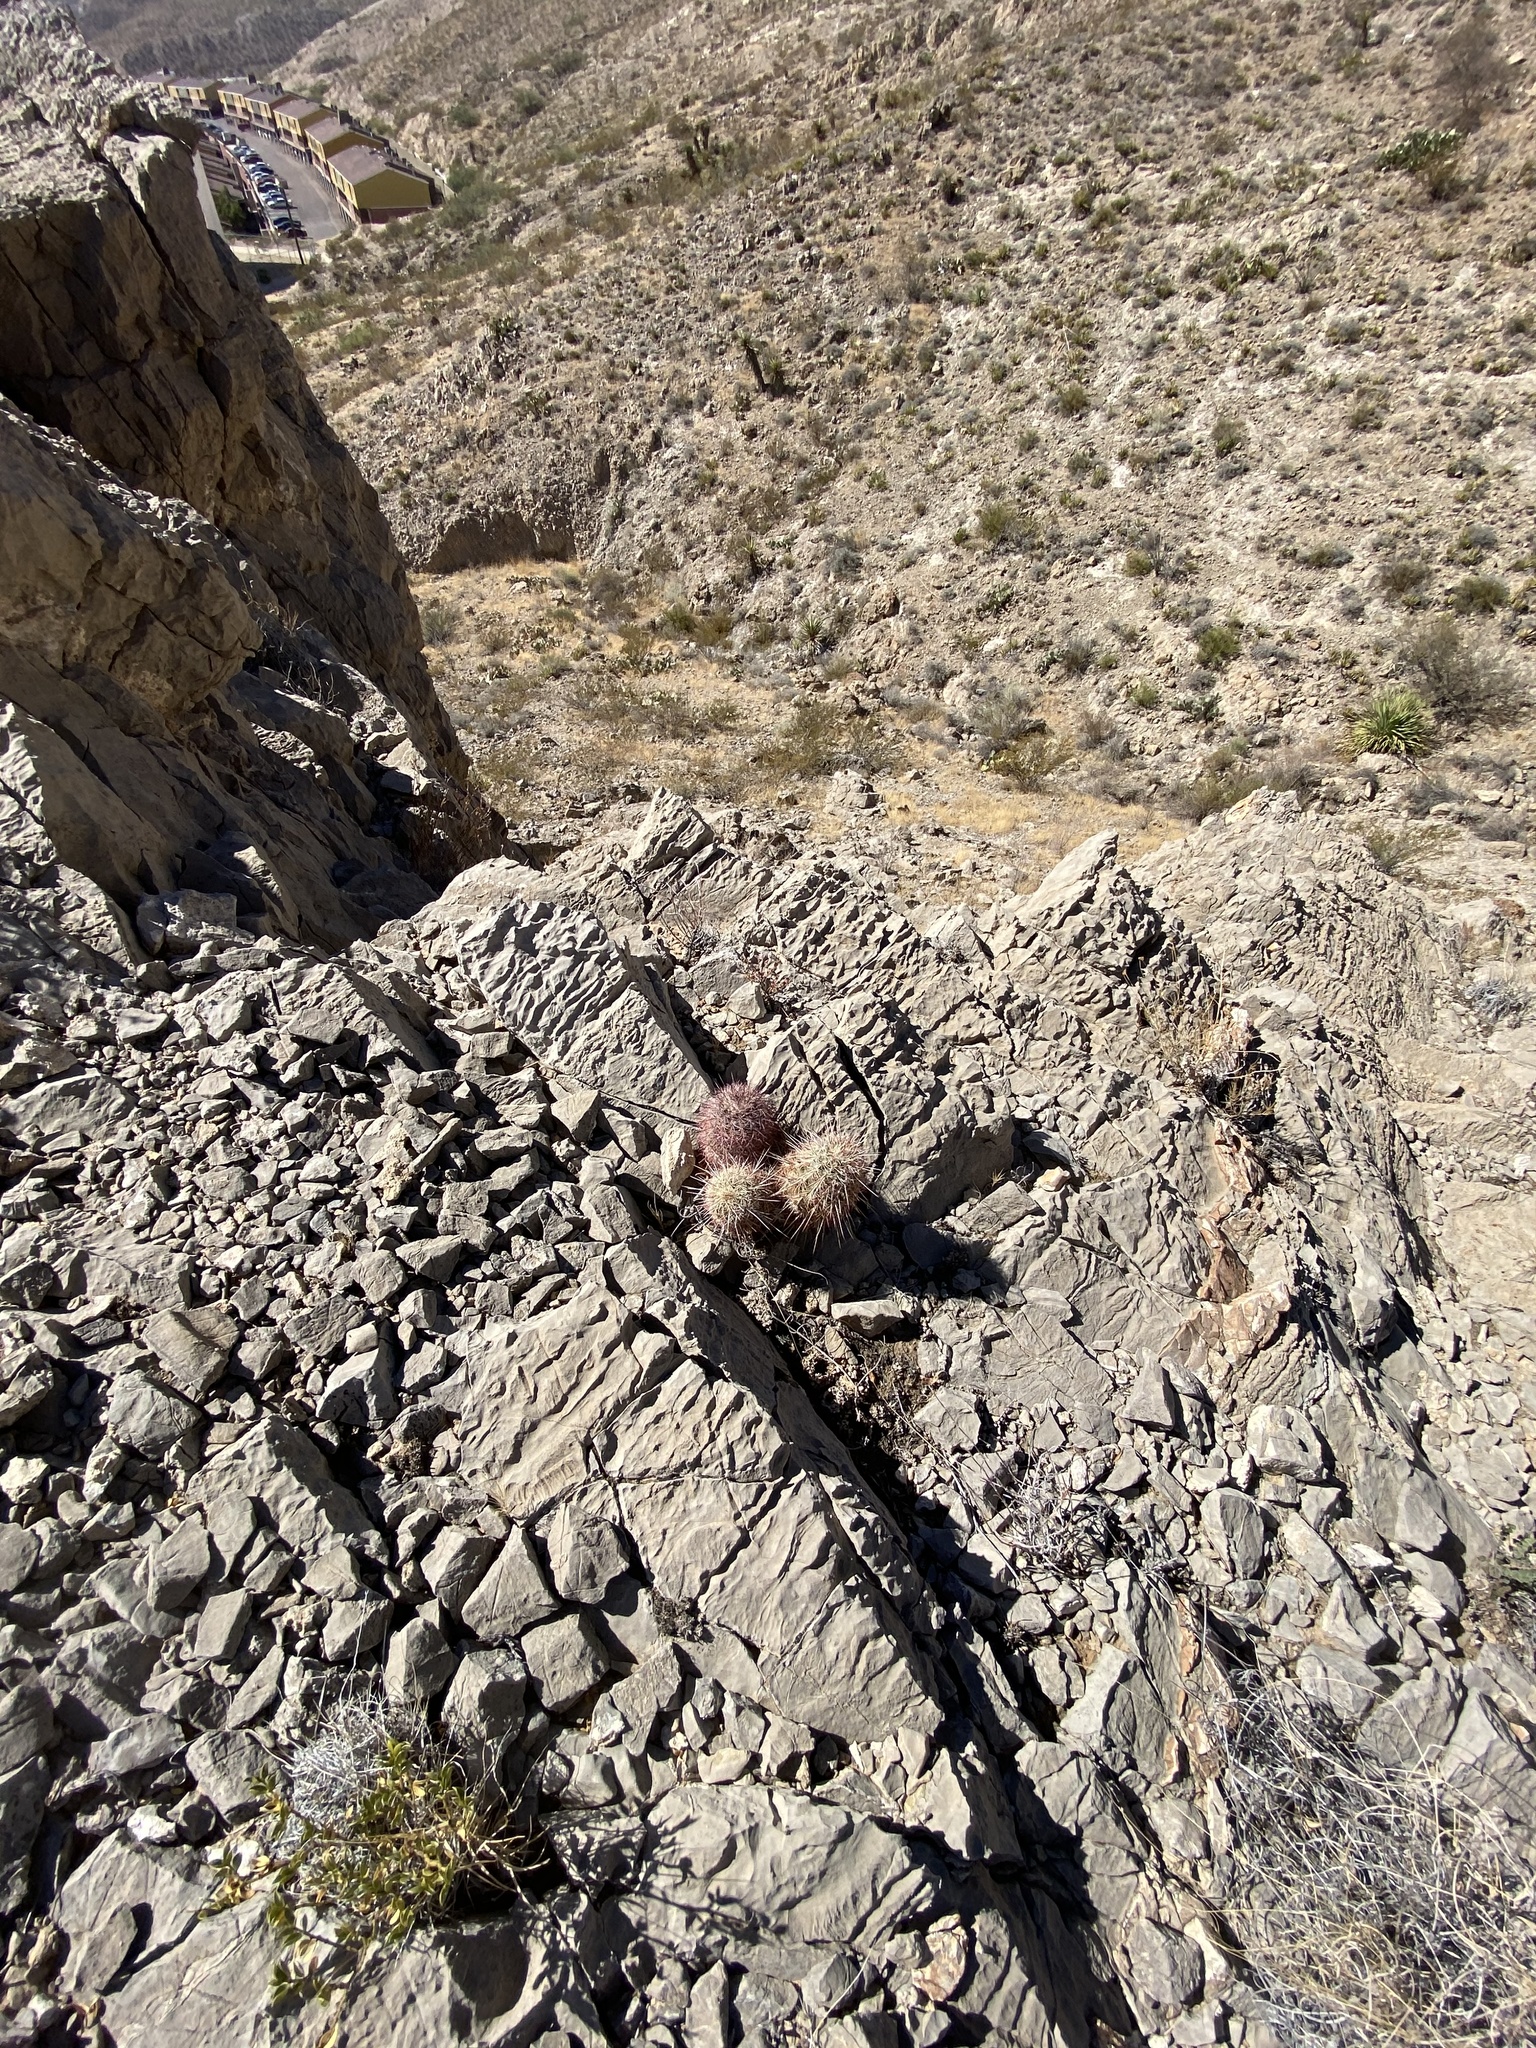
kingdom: Plantae
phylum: Tracheophyta
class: Magnoliopsida
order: Caryophyllales
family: Cactaceae
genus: Echinocereus
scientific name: Echinocereus viridiflorus
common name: Nylon hedgehog cactus
